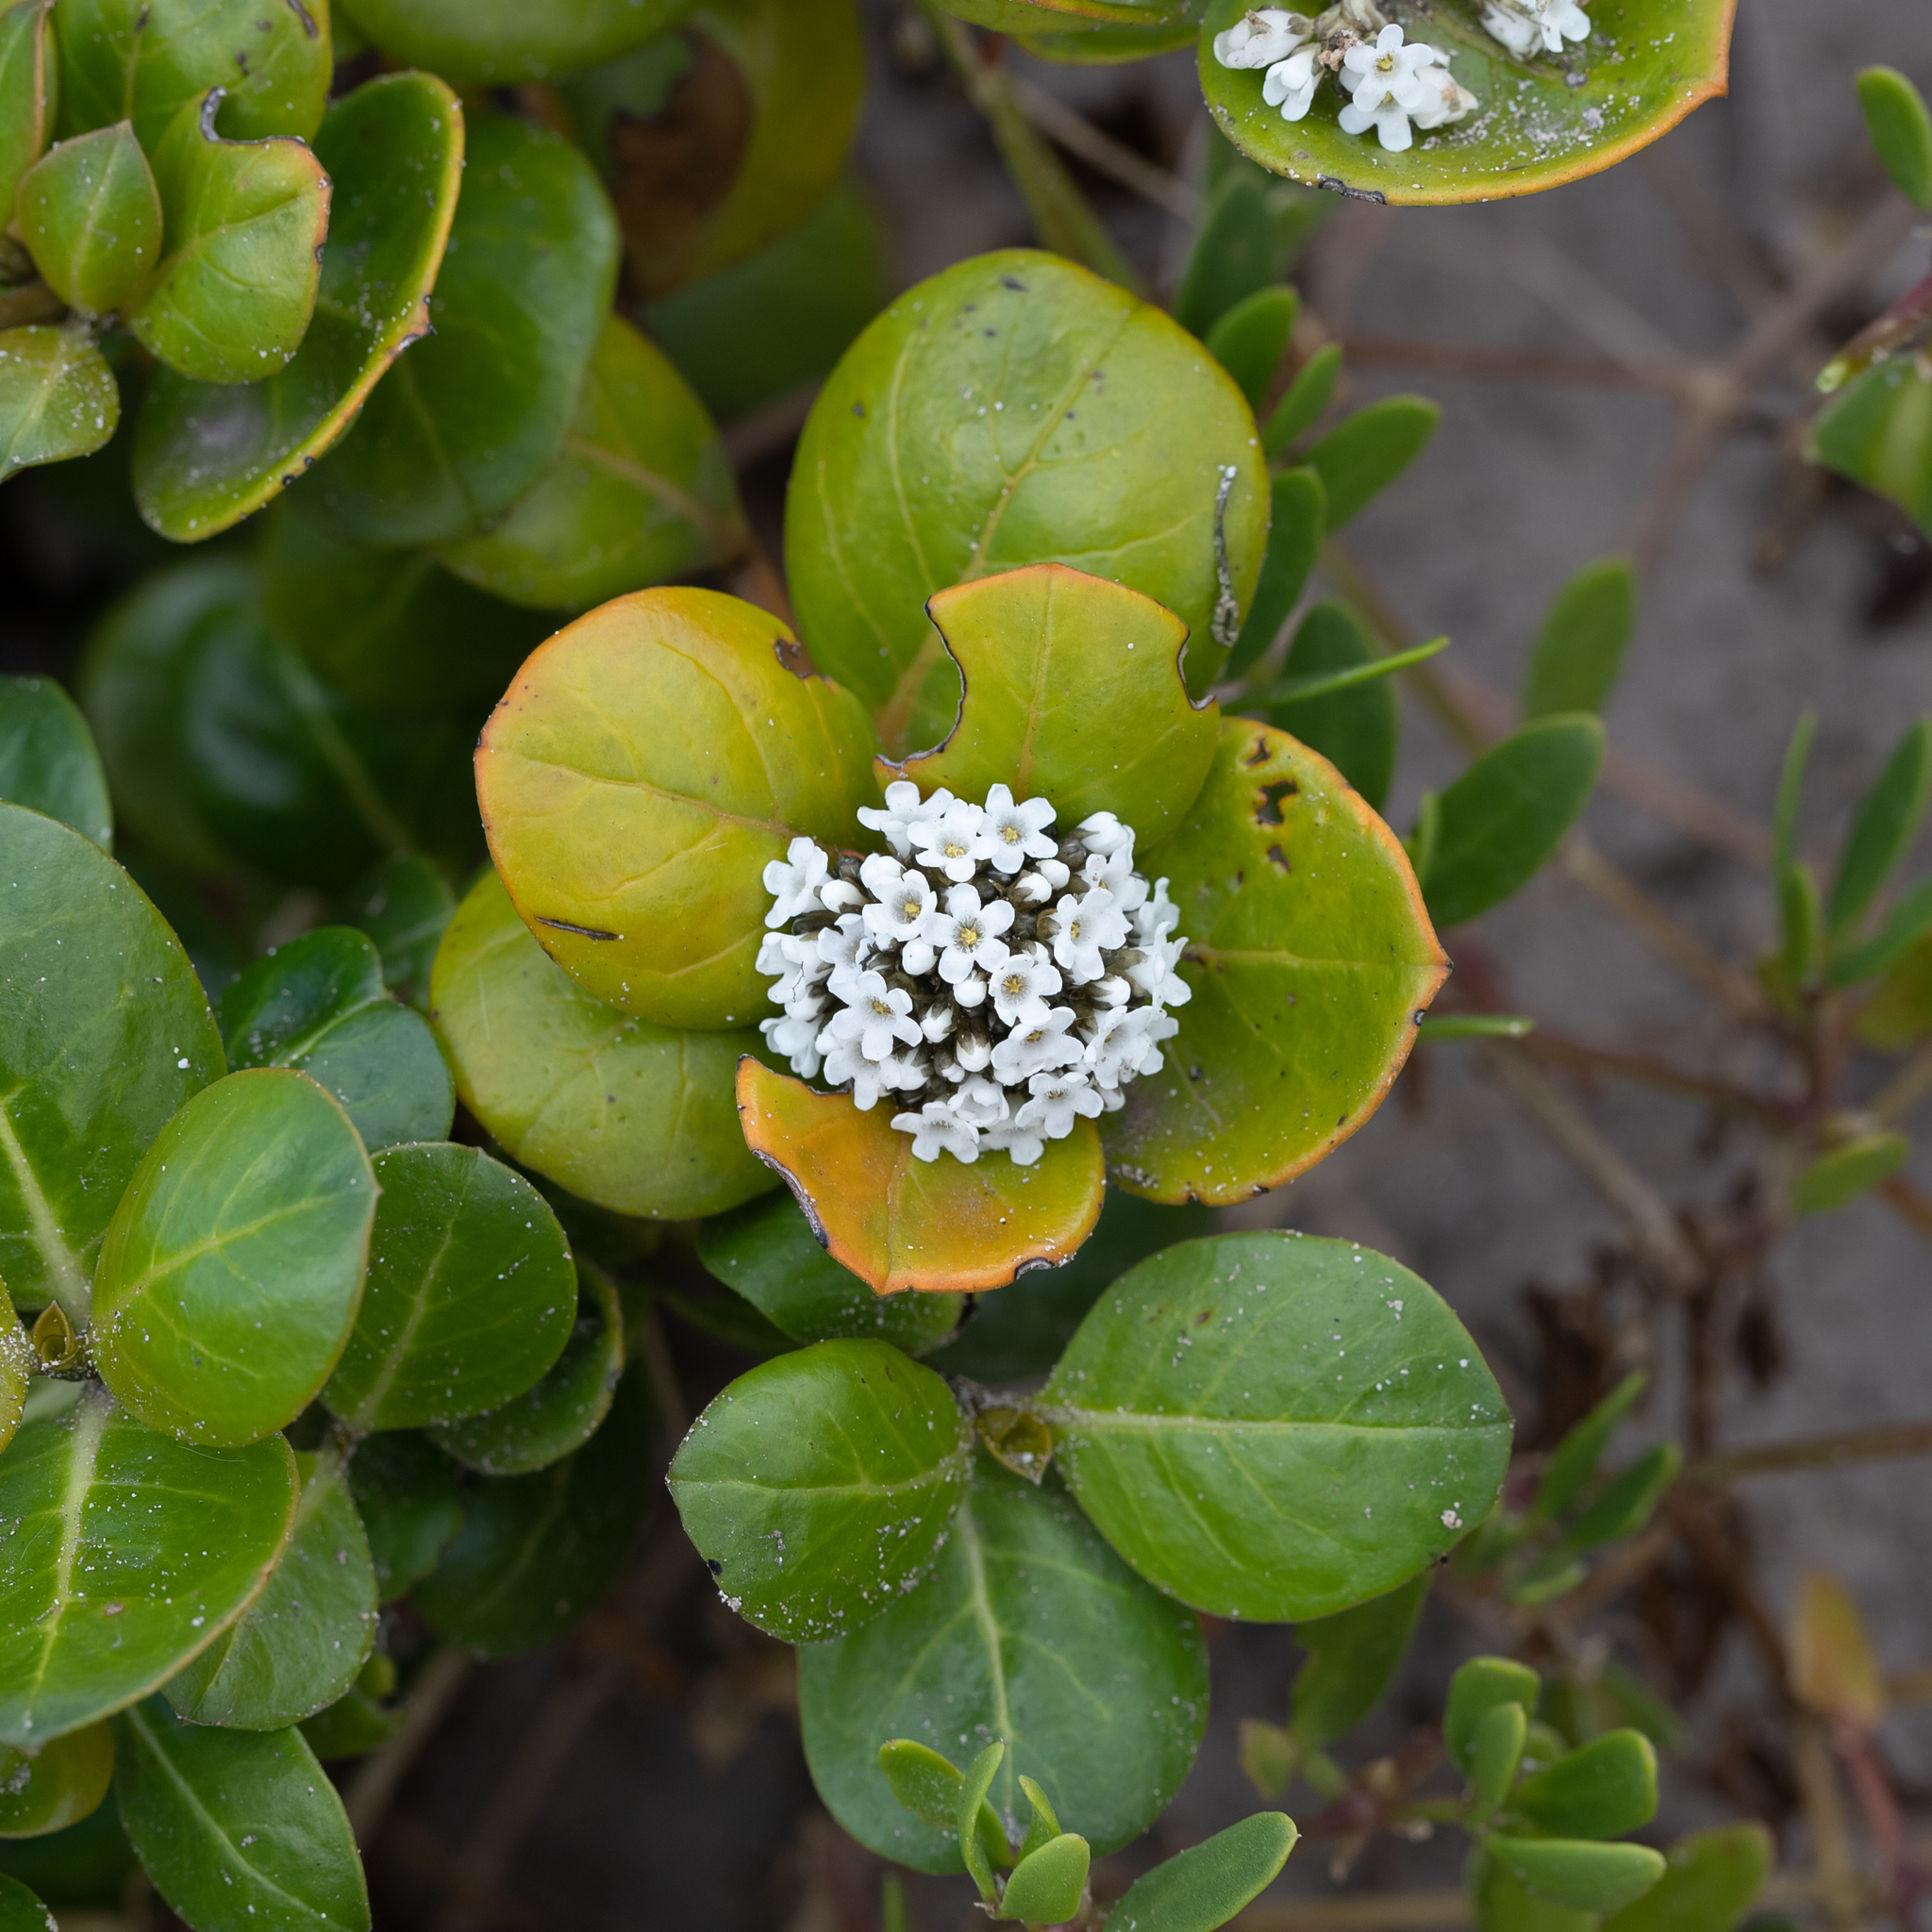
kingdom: Plantae
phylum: Tracheophyta
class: Magnoliopsida
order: Gentianales
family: Loganiaceae
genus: Logania
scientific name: Logania crassifolia
